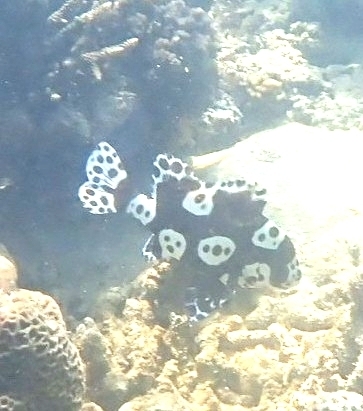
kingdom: Animalia
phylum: Chordata
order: Perciformes
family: Haemulidae
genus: Plectorhinchus
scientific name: Plectorhinchus chaetodonoides
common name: Harlequin sweetlips
